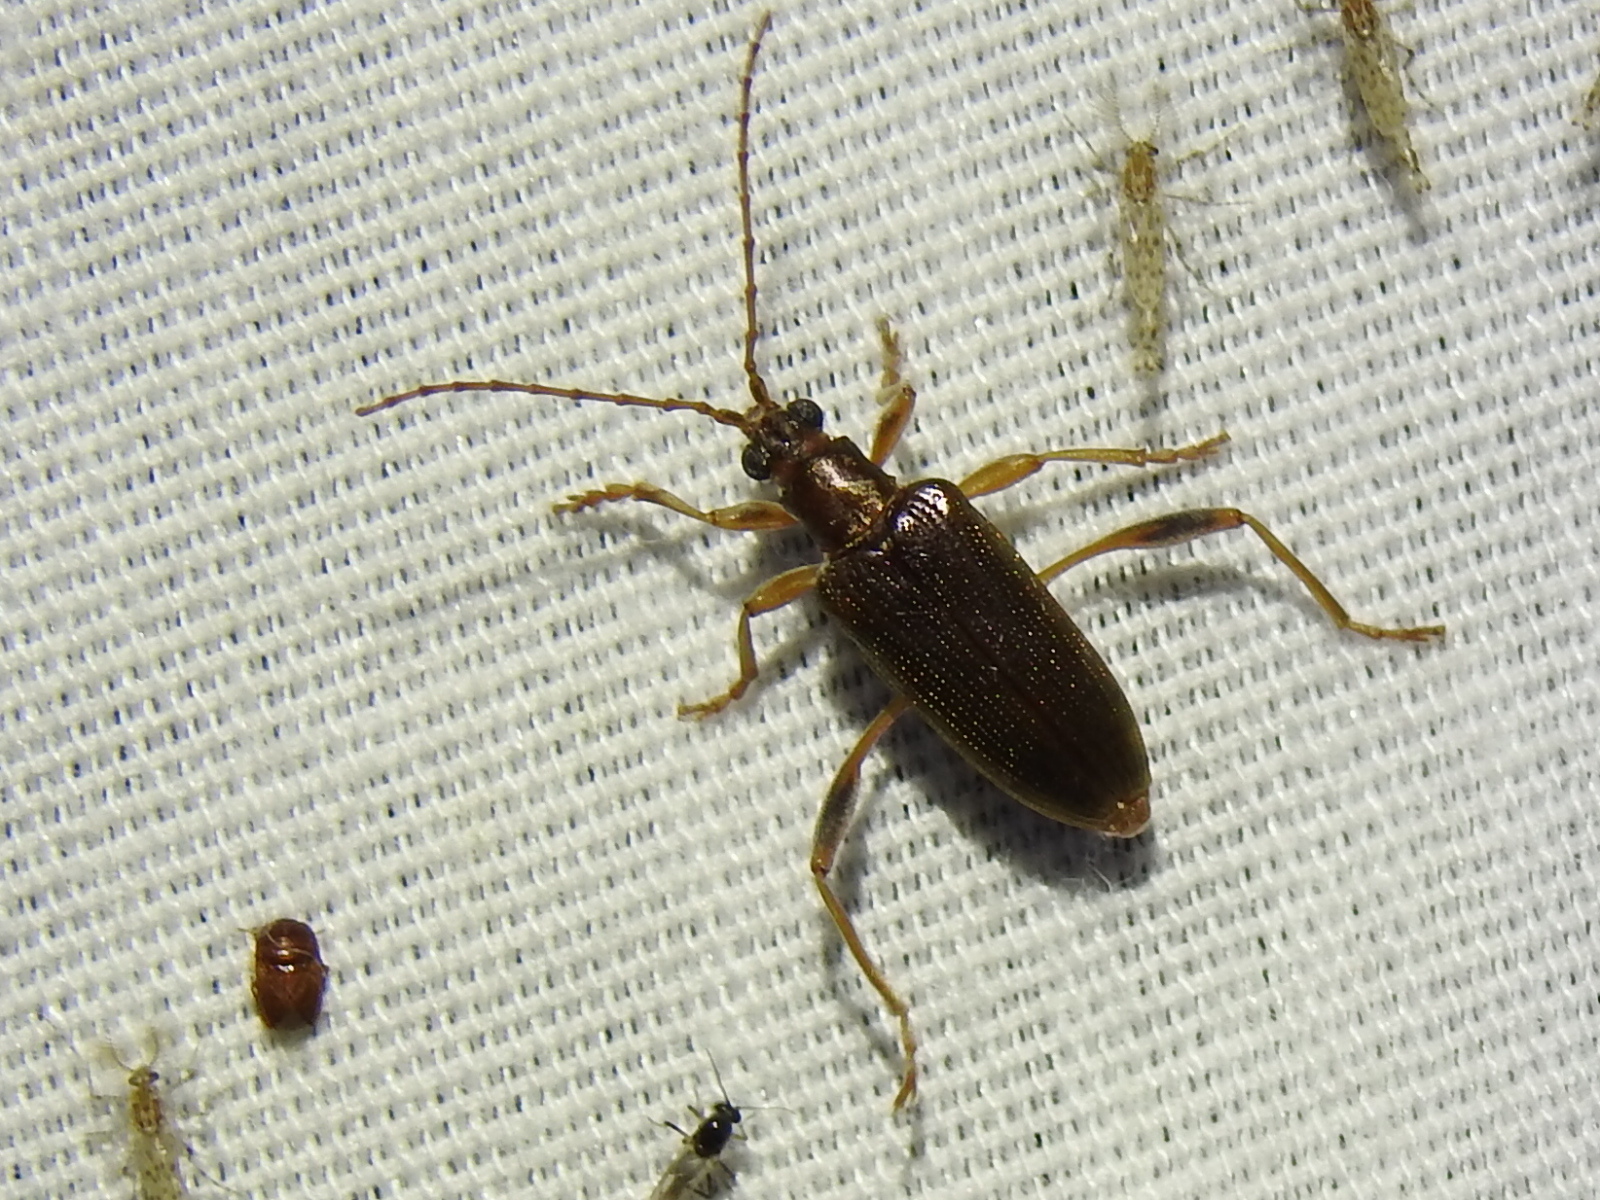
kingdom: Animalia
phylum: Arthropoda
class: Insecta
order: Coleoptera
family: Chrysomelidae
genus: Donacia
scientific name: Donacia hypoleuca
